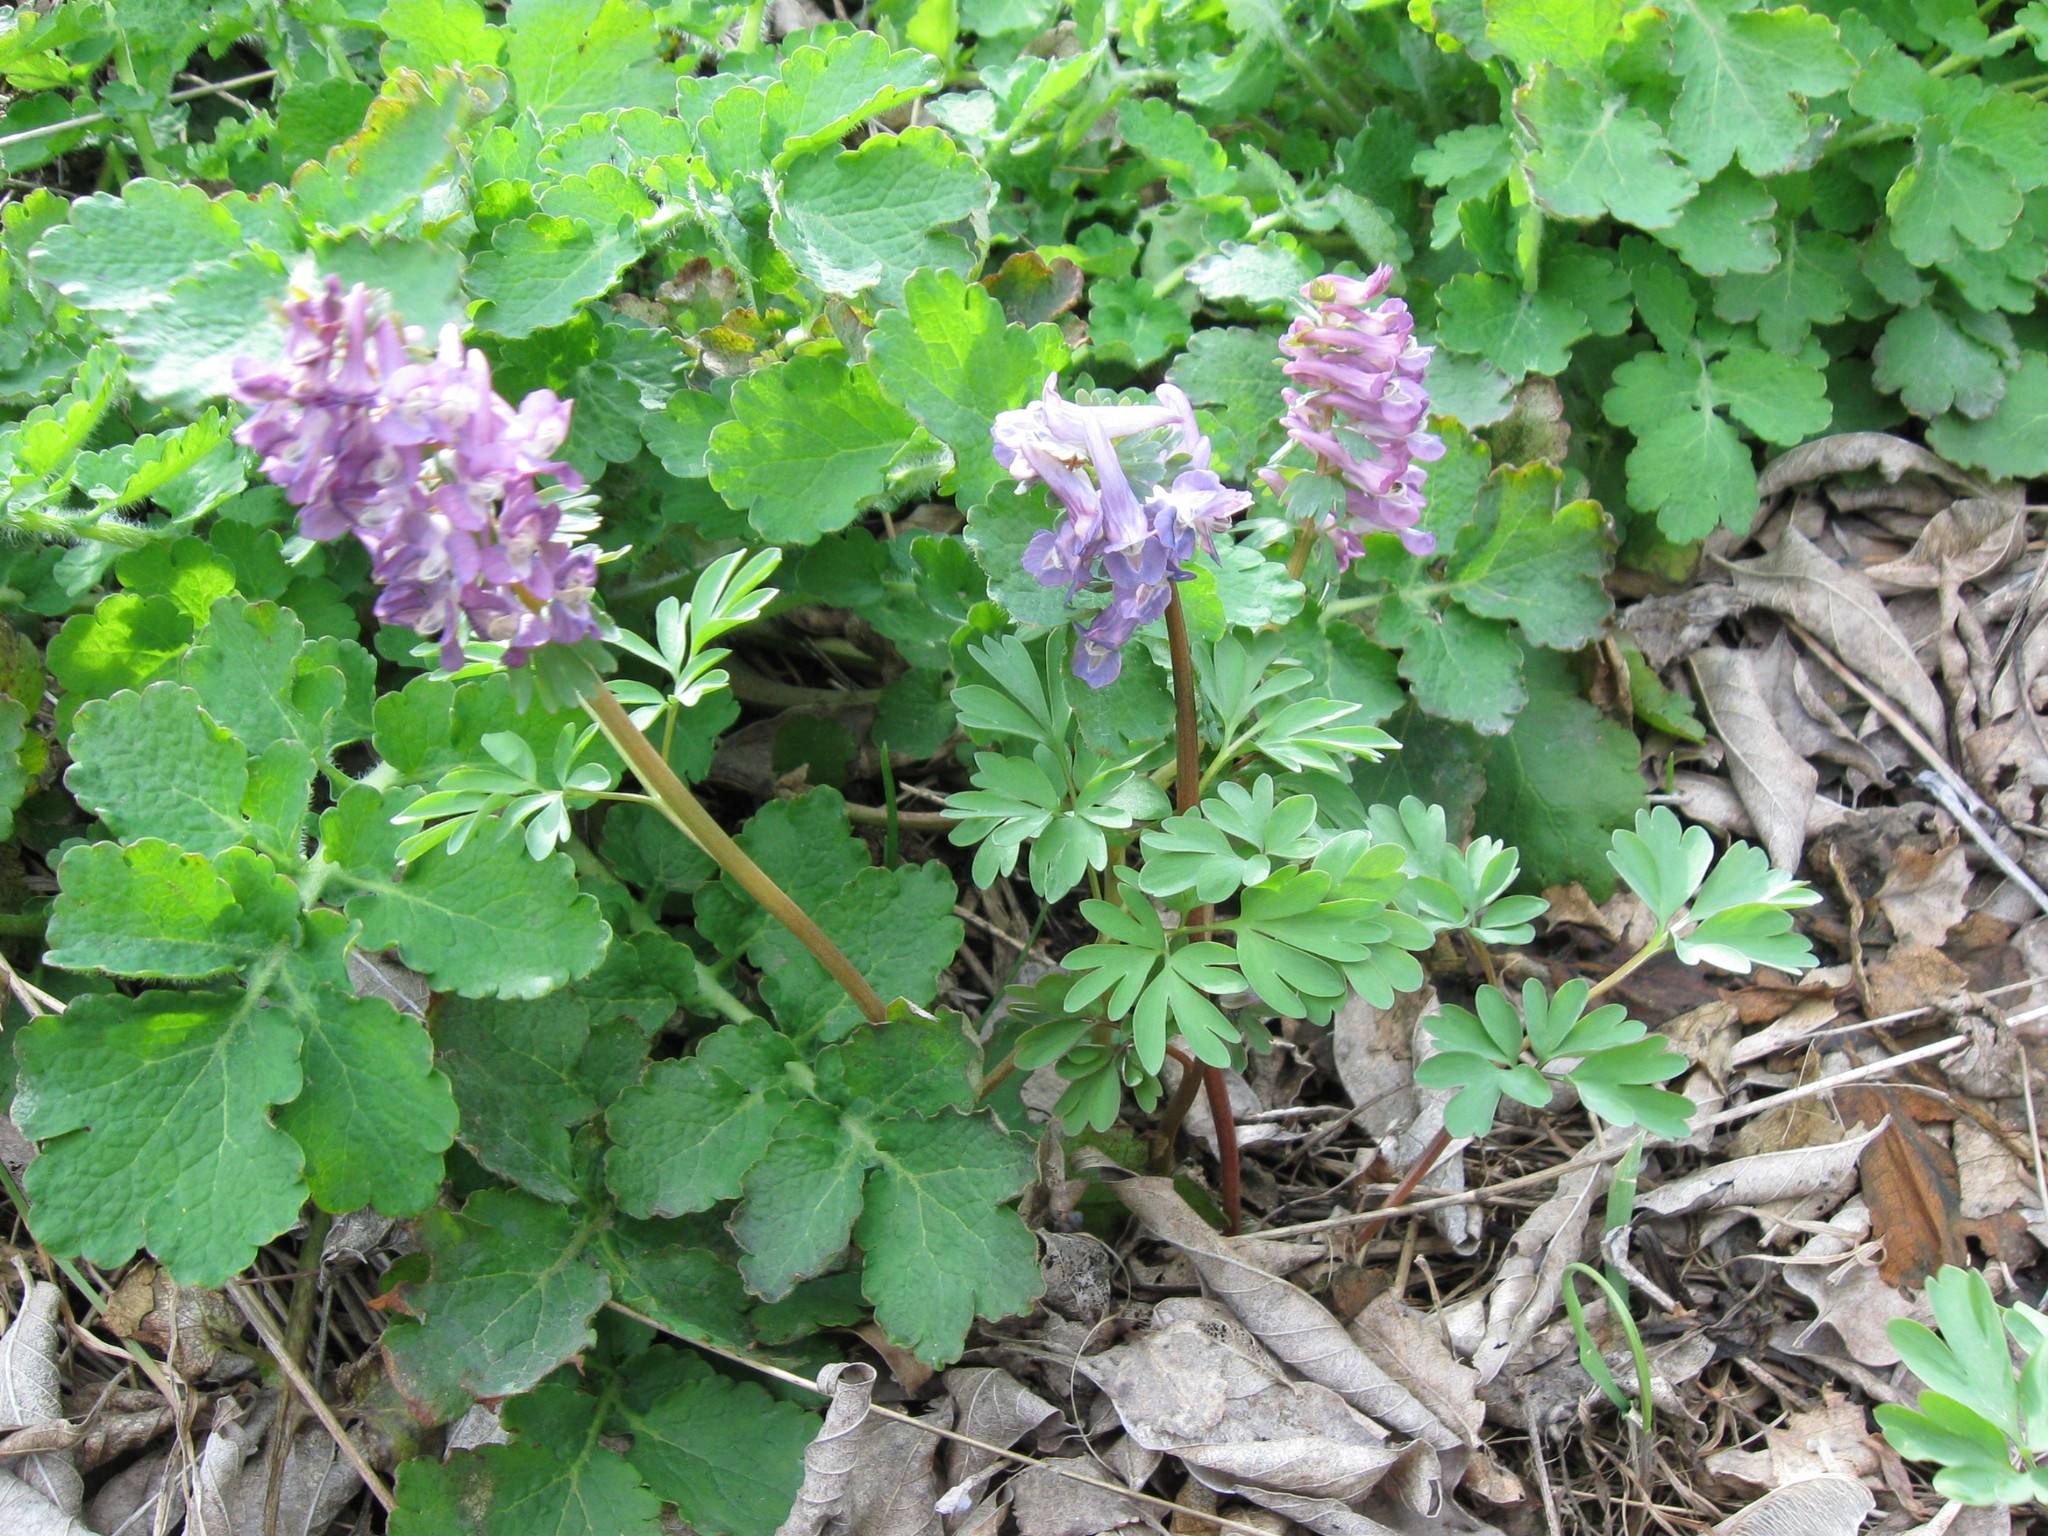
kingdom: Plantae
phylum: Tracheophyta
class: Magnoliopsida
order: Ranunculales
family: Papaveraceae
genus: Corydalis
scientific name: Corydalis solida
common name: Bird-in-a-bush
